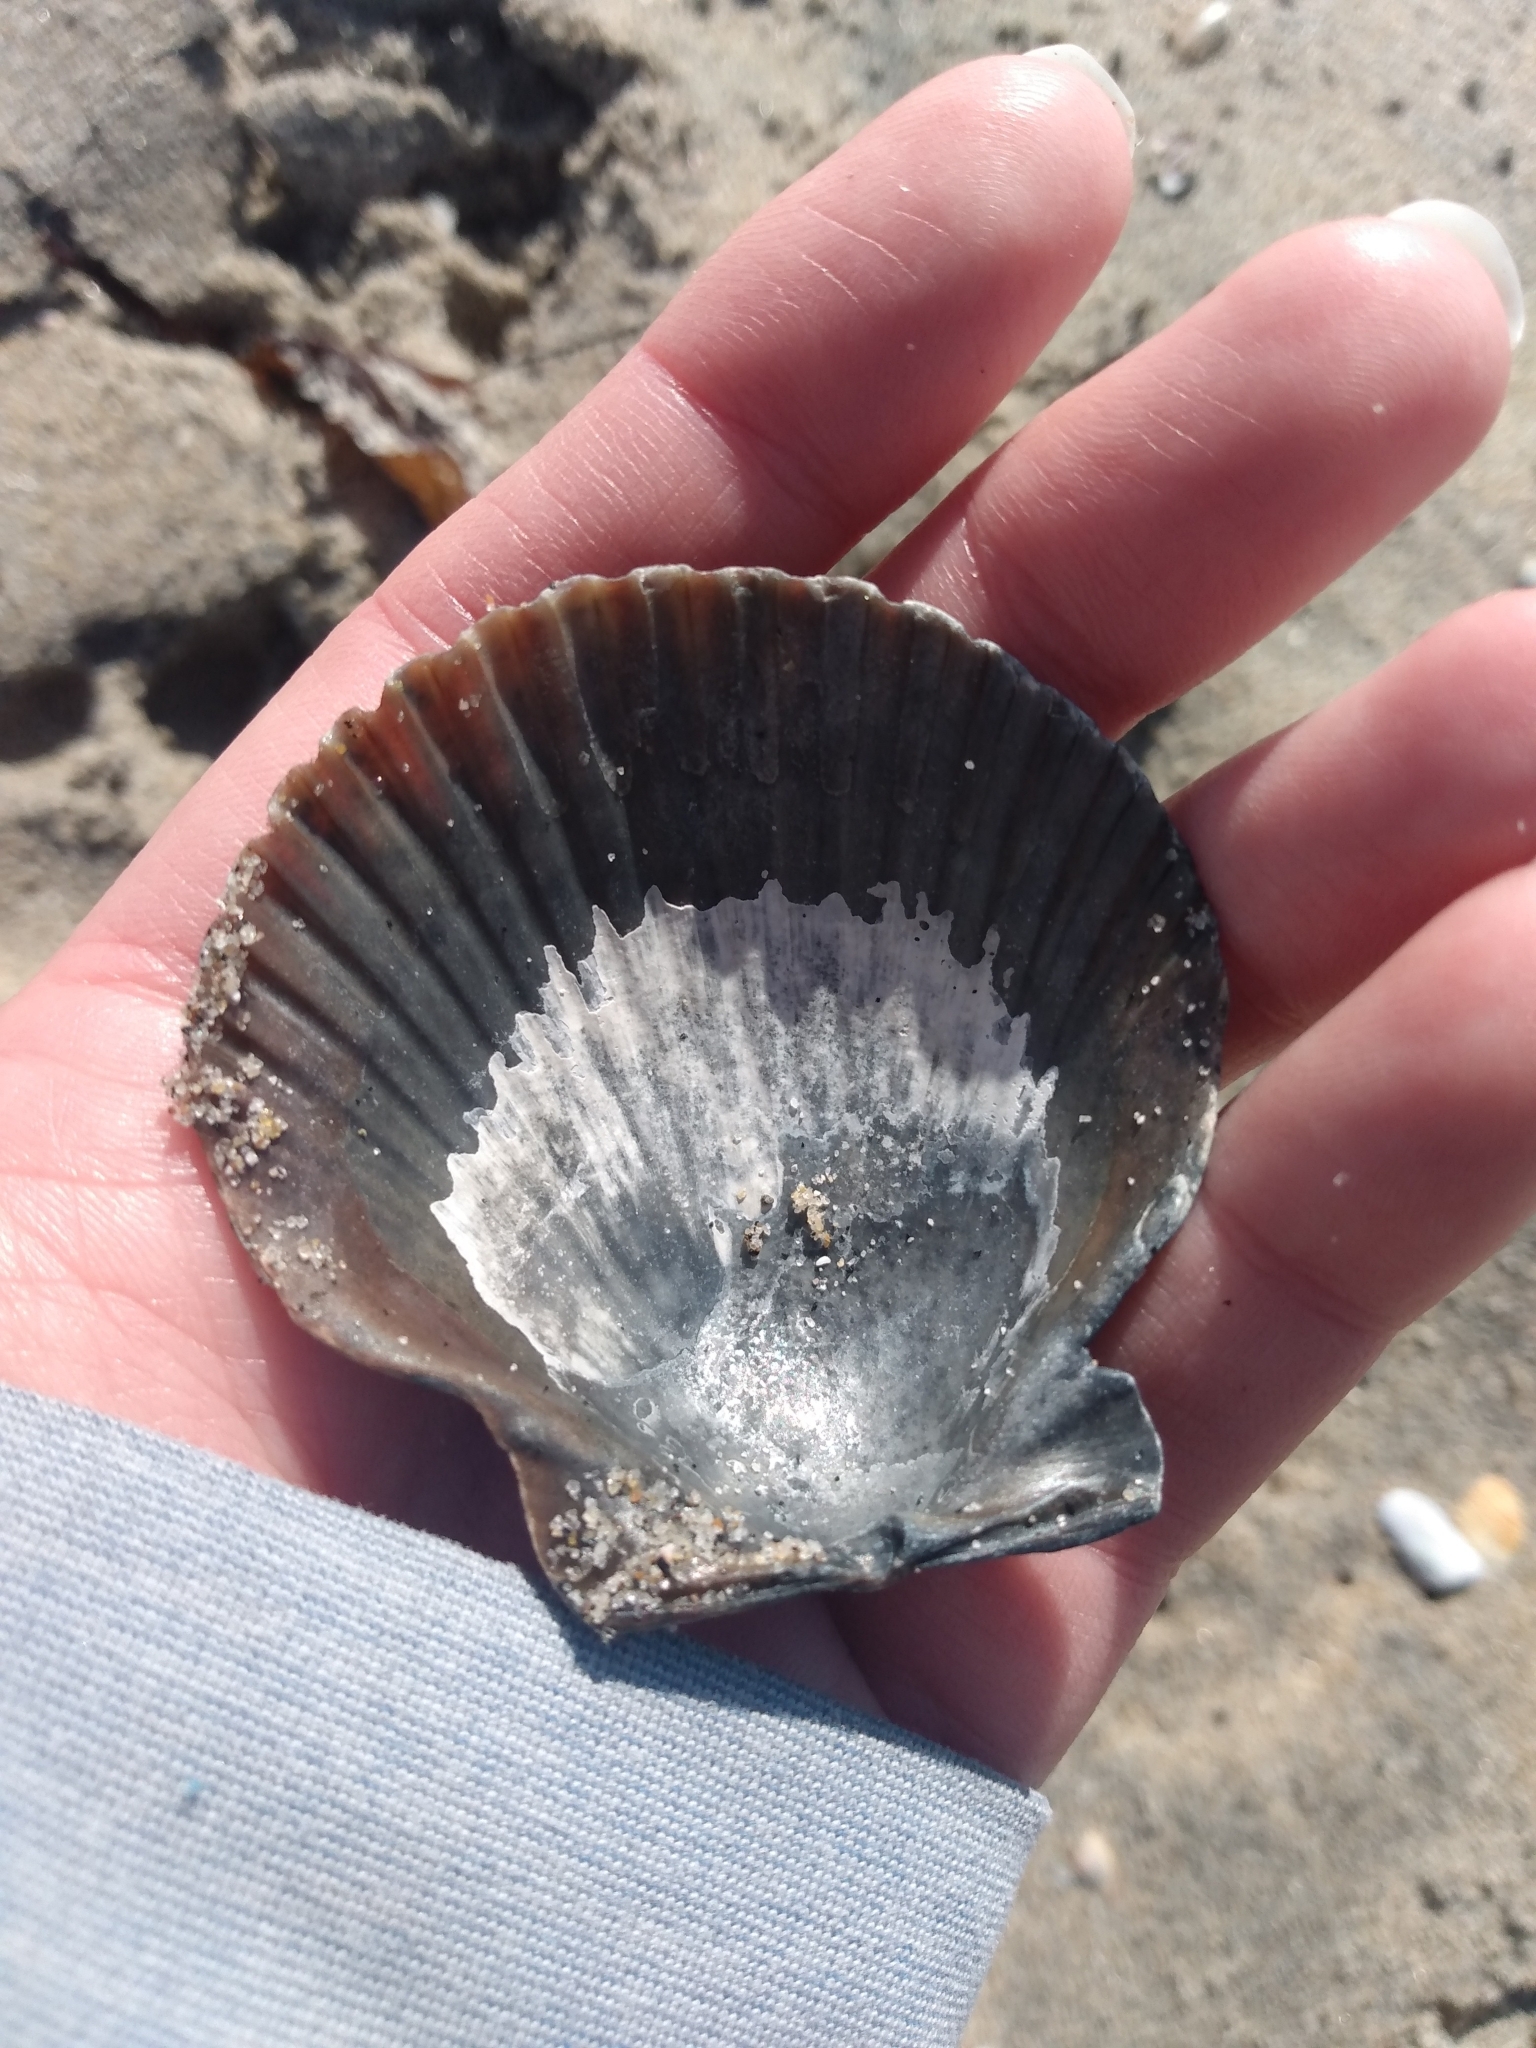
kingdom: Animalia
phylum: Mollusca
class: Bivalvia
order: Pectinida
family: Pectinidae
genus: Argopecten
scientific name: Argopecten ventricosus
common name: Catarina scallop
